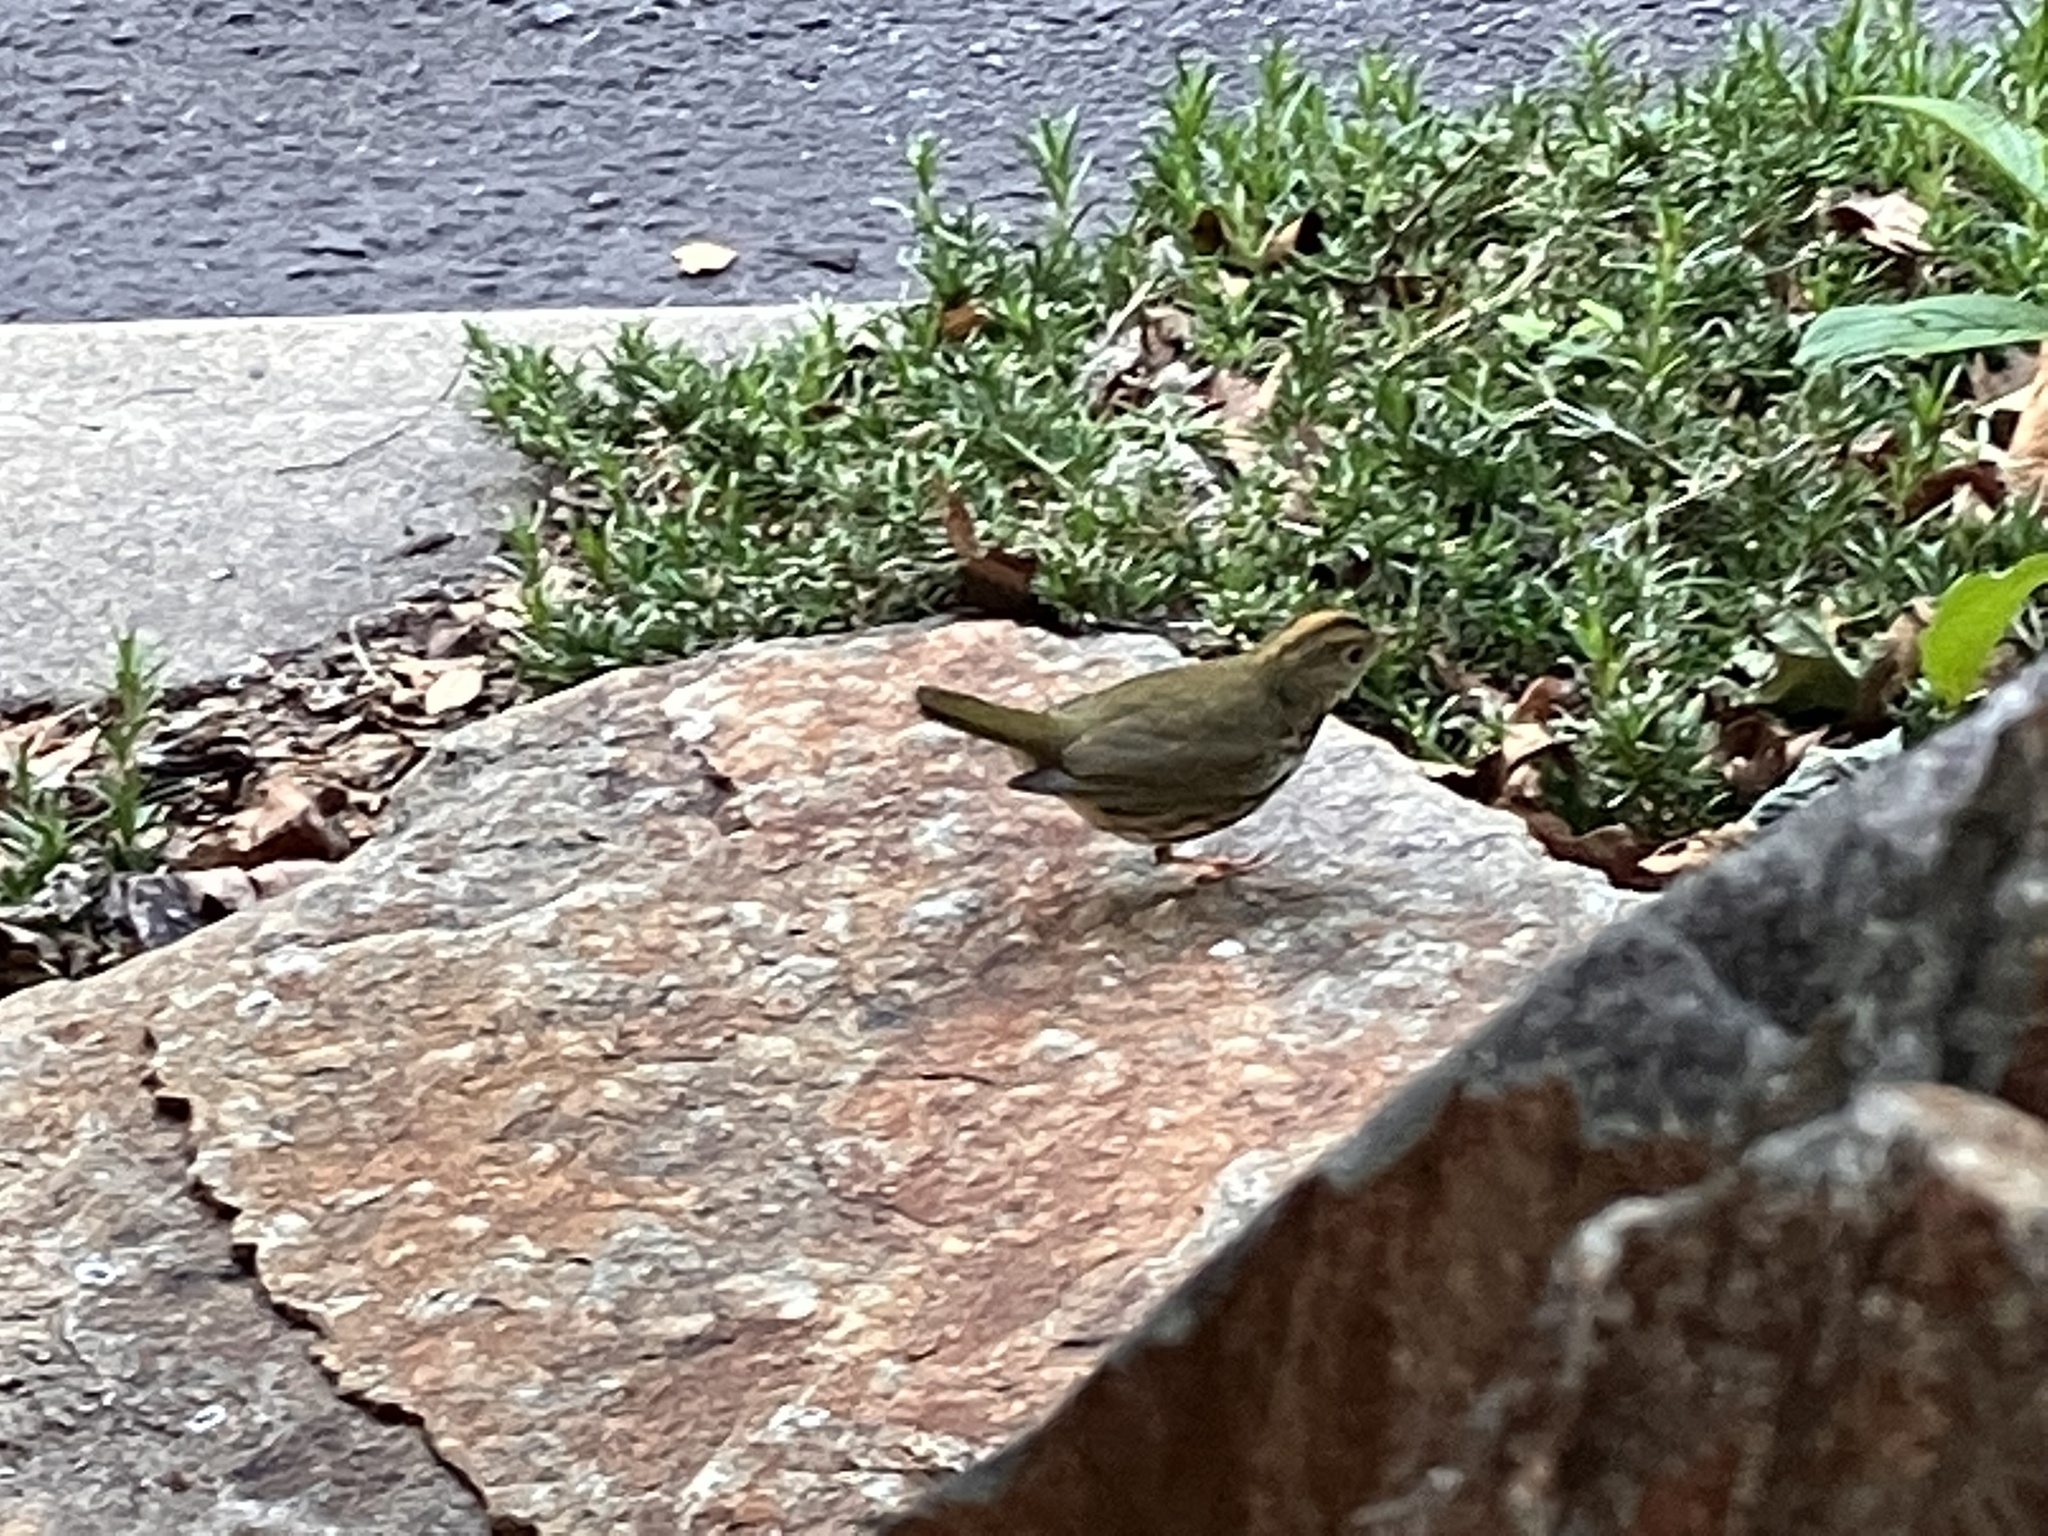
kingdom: Animalia
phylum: Chordata
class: Aves
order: Passeriformes
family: Parulidae
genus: Seiurus
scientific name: Seiurus aurocapilla
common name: Ovenbird
